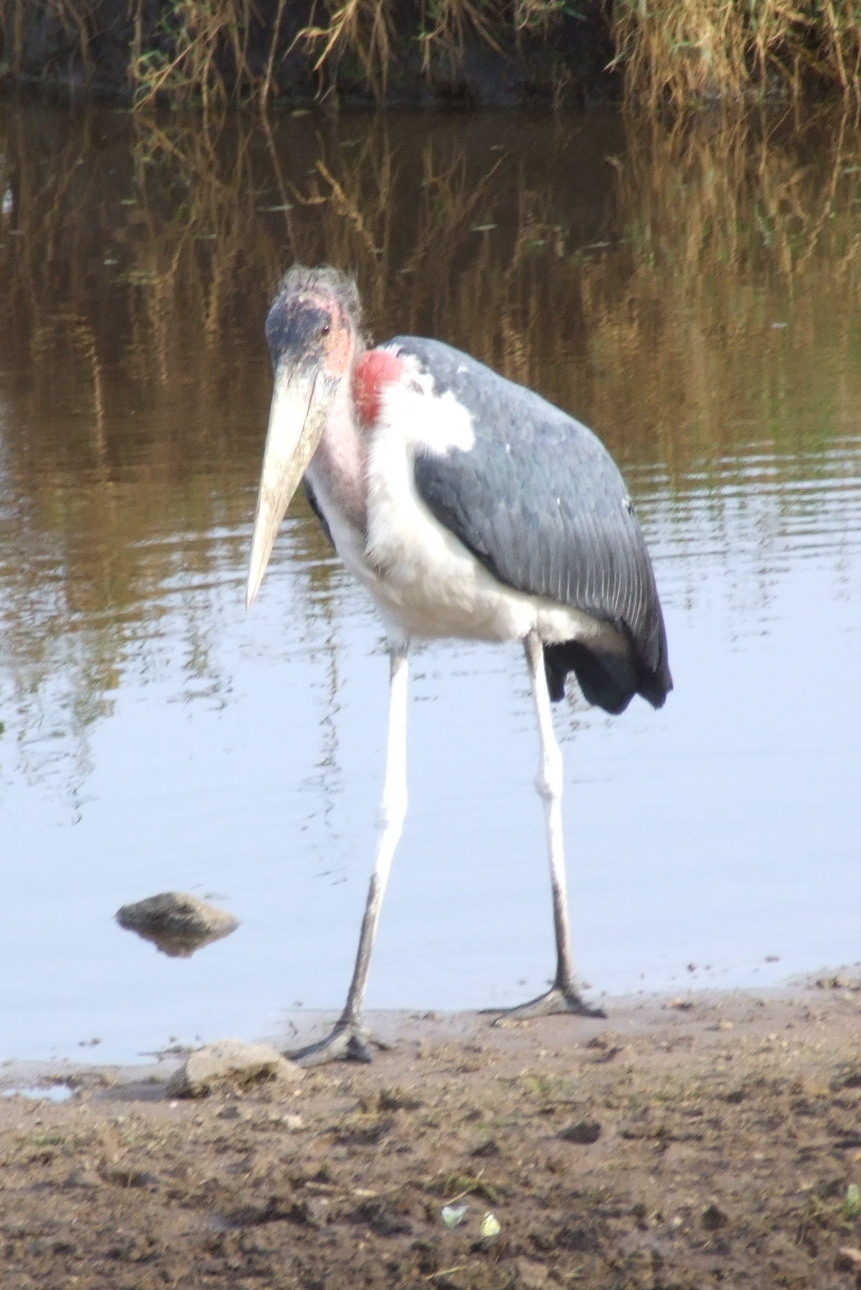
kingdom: Animalia
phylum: Chordata
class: Aves
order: Ciconiiformes
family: Ciconiidae
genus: Leptoptilos
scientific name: Leptoptilos crumenifer
